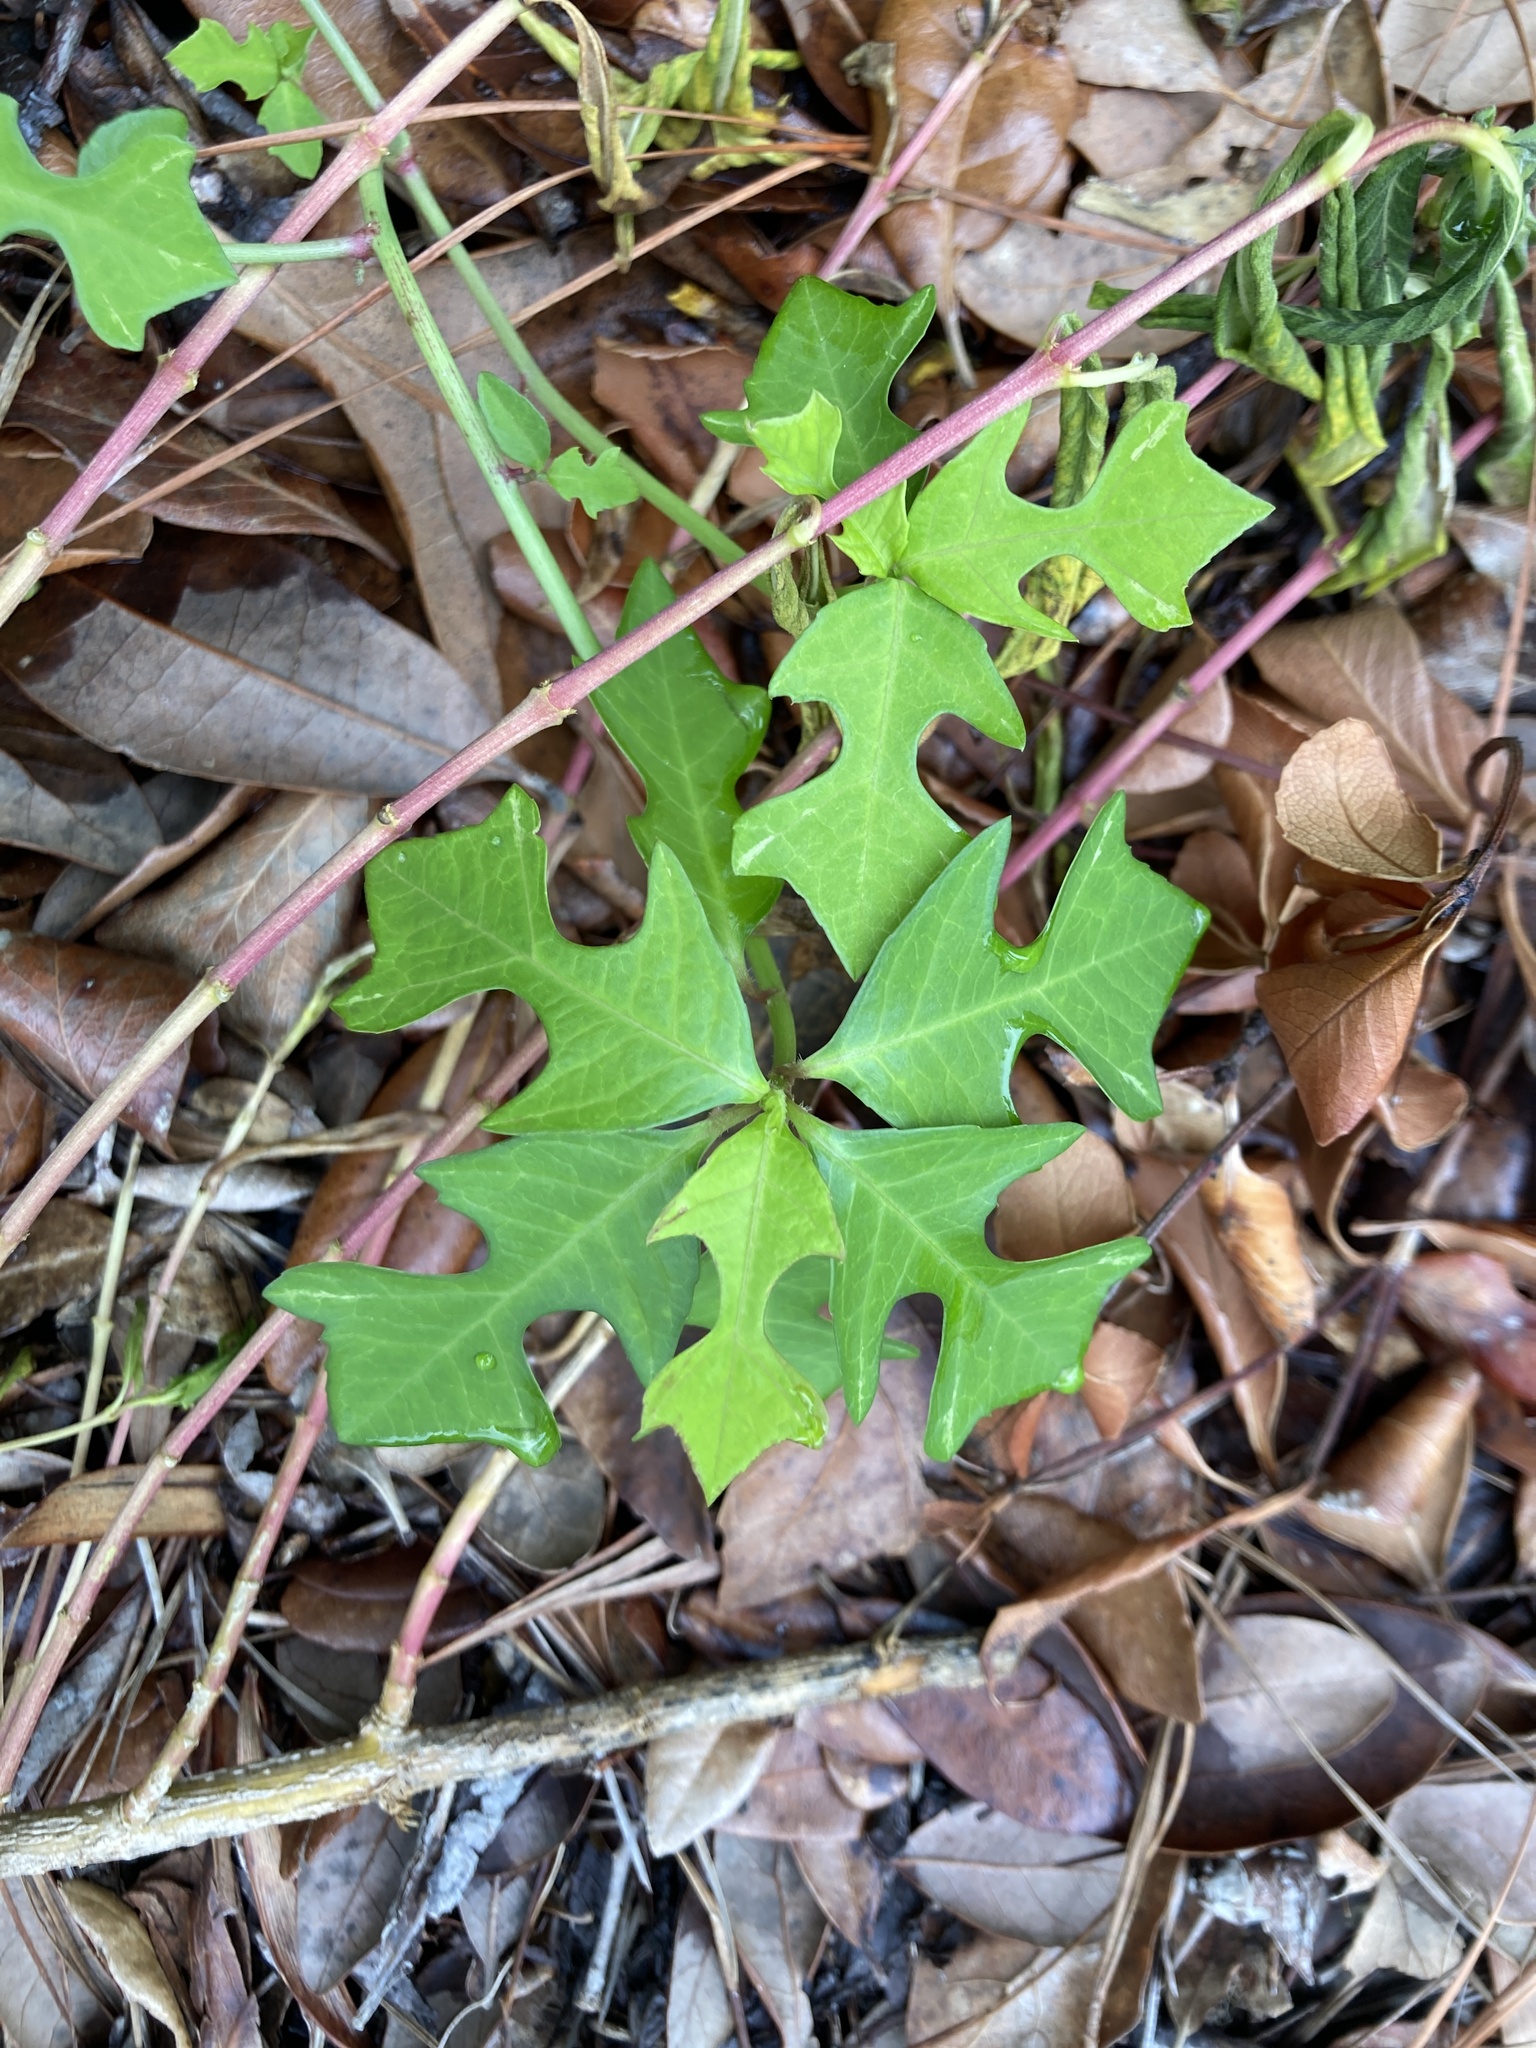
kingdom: Plantae
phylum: Tracheophyta
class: Magnoliopsida
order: Malpighiales
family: Euphorbiaceae
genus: Euphorbia
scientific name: Euphorbia heterophylla
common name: Mexican fireplant
